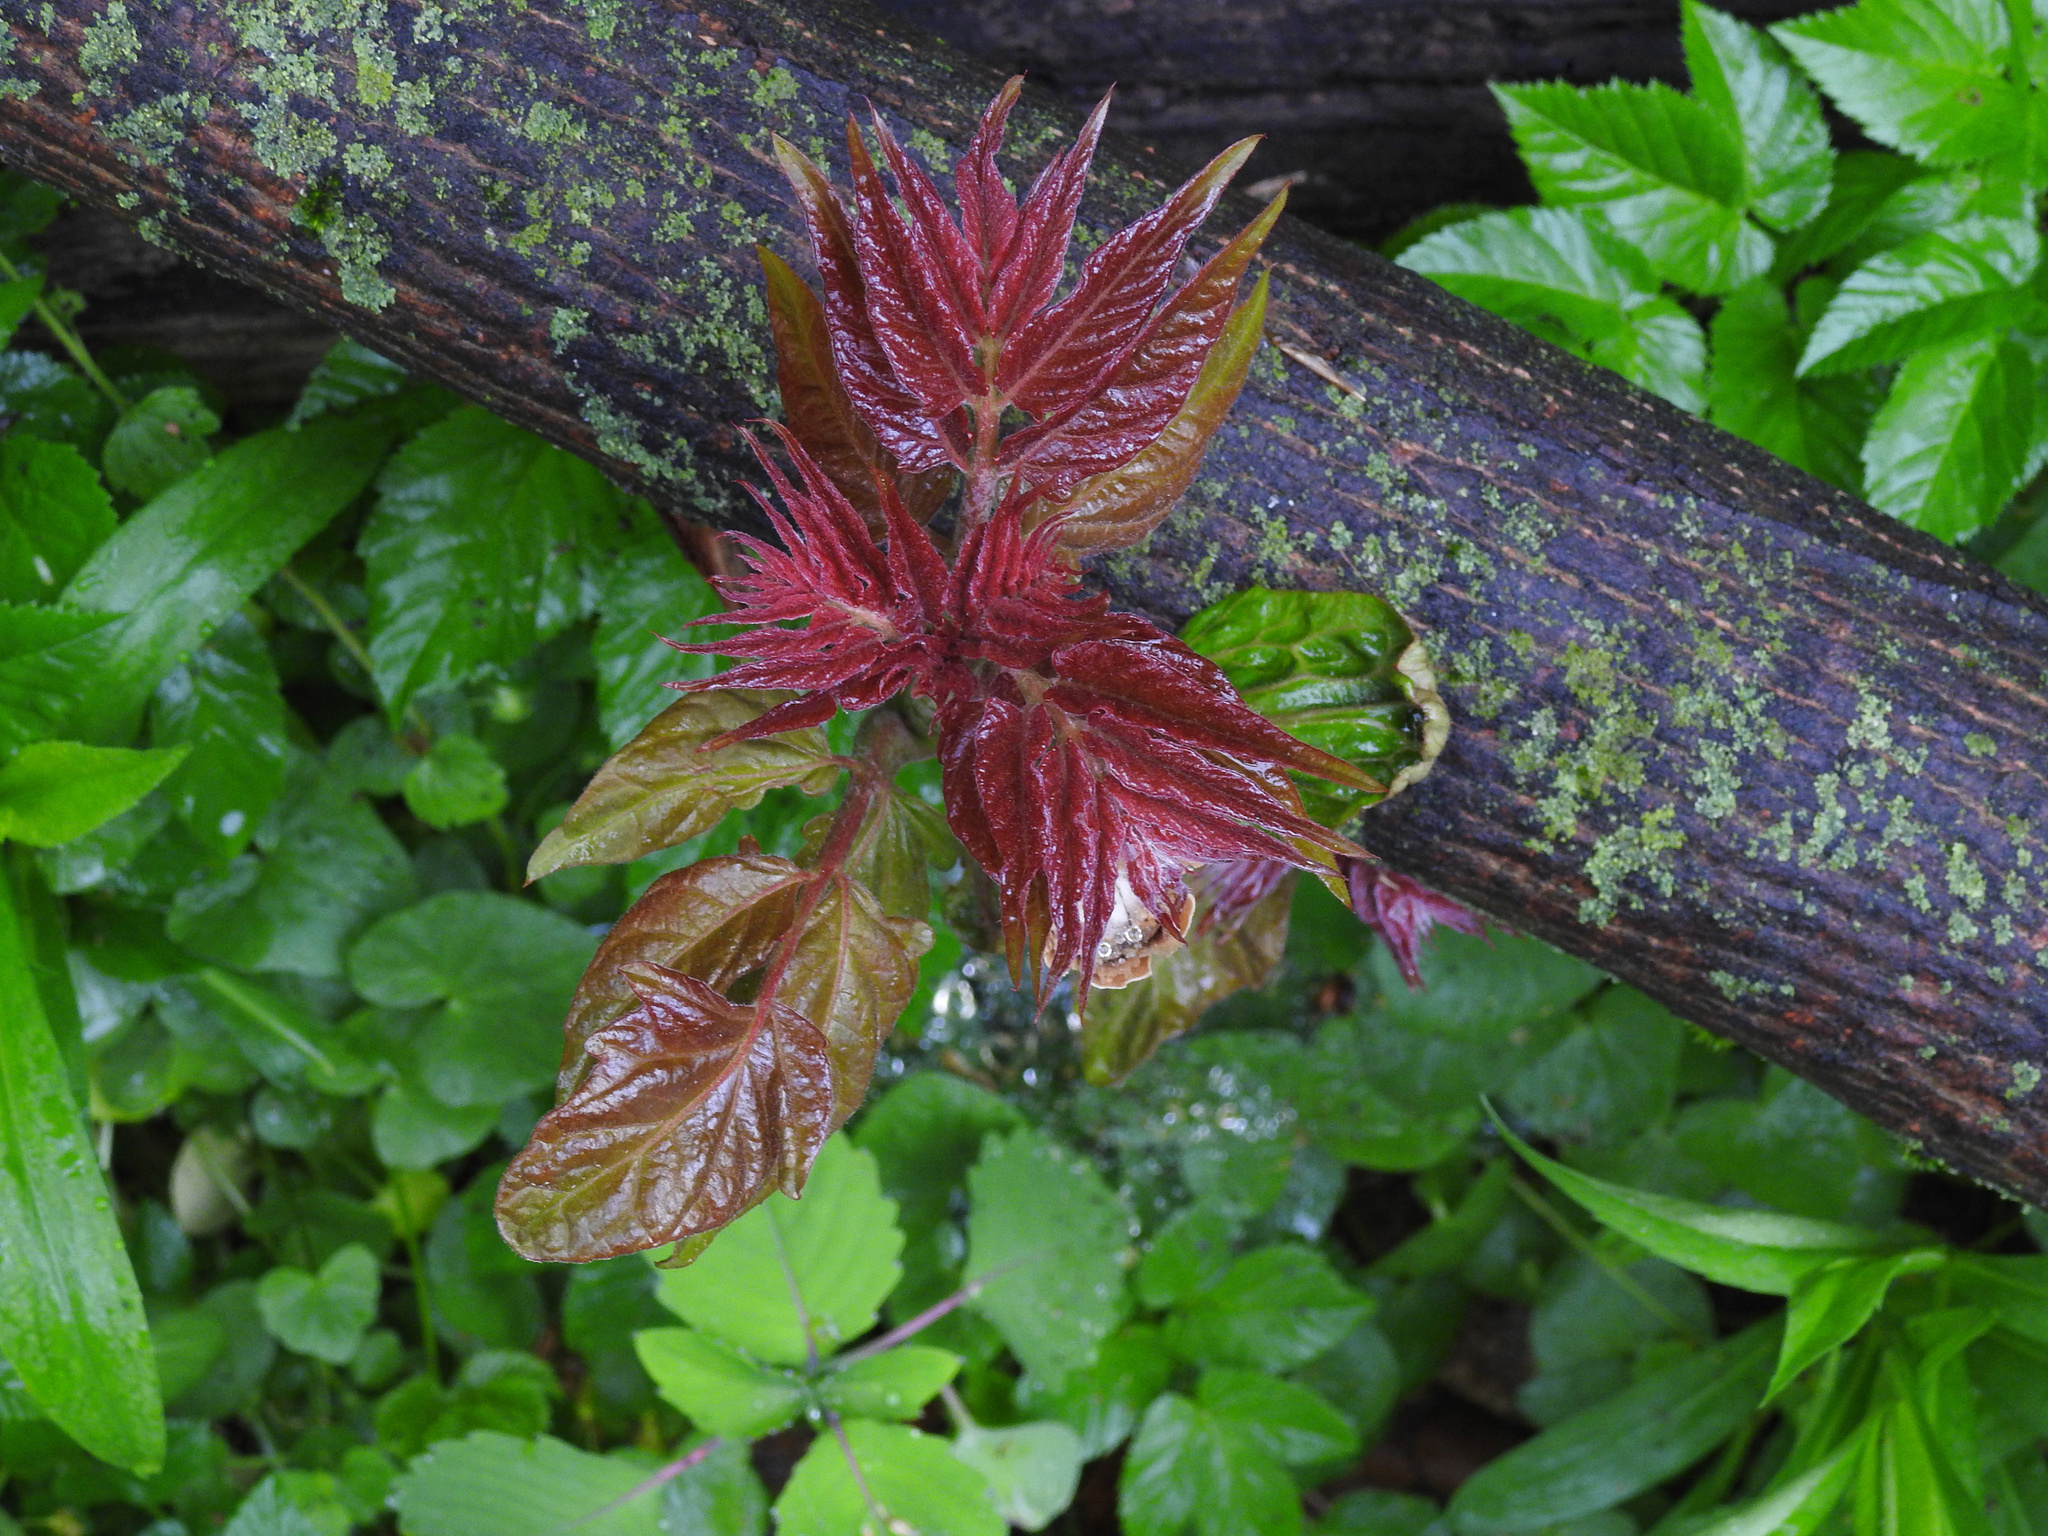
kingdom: Plantae
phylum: Tracheophyta
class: Magnoliopsida
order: Sapindales
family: Simaroubaceae
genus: Ailanthus
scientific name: Ailanthus altissima
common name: Tree-of-heaven
